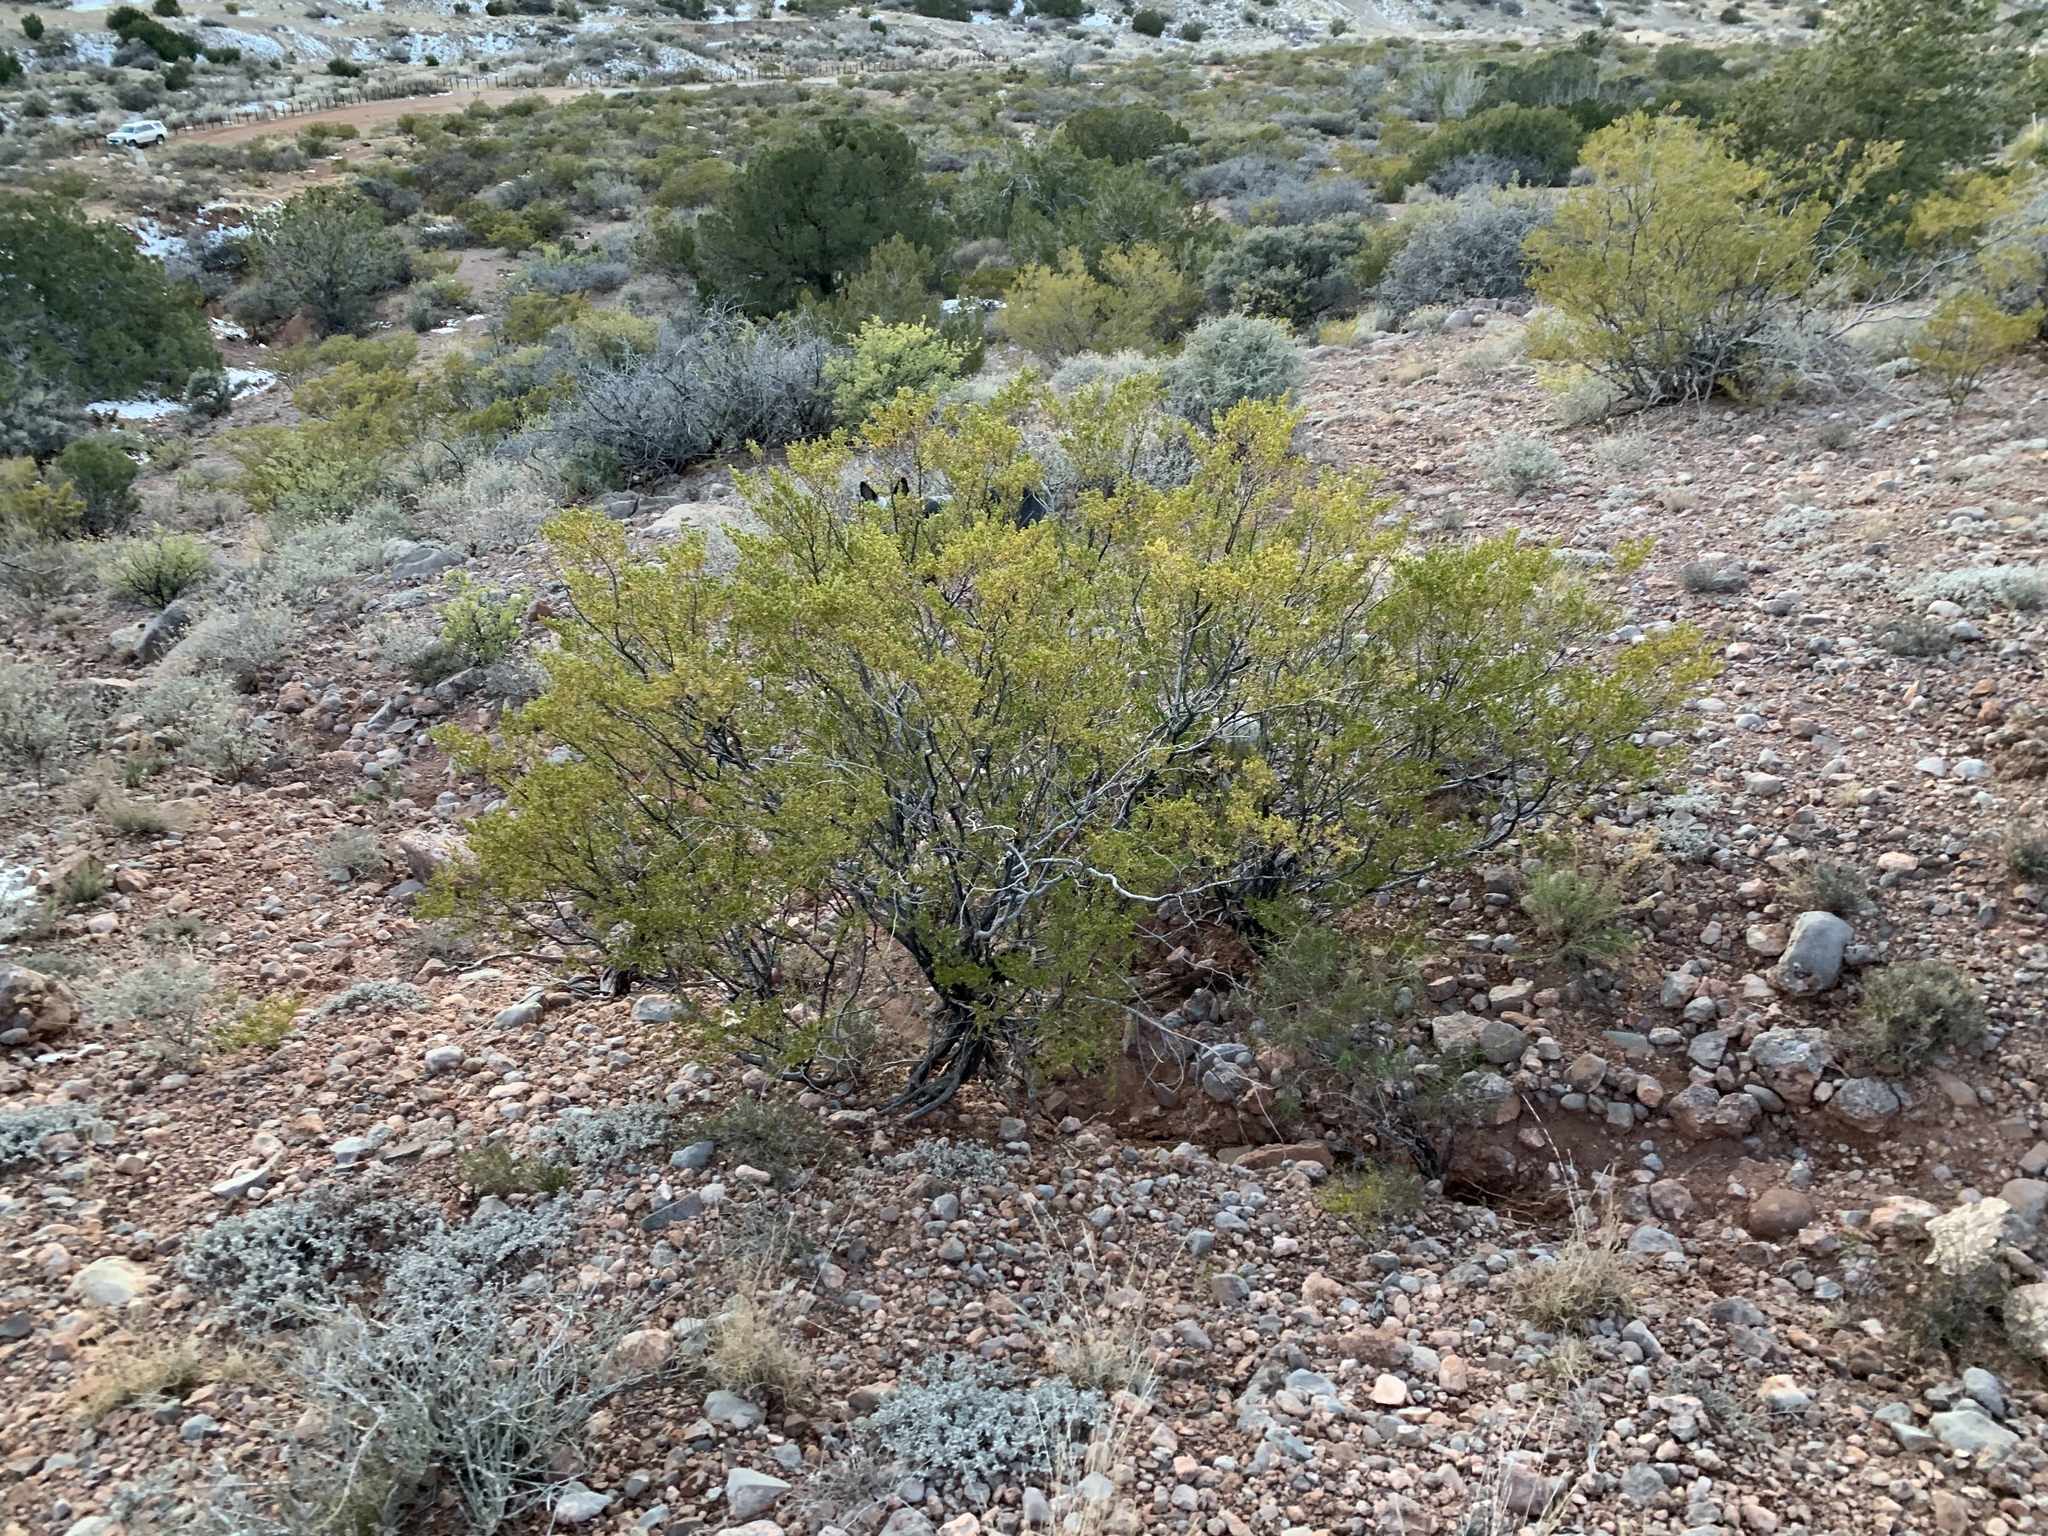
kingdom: Plantae
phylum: Tracheophyta
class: Magnoliopsida
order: Zygophyllales
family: Zygophyllaceae
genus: Larrea
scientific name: Larrea tridentata
